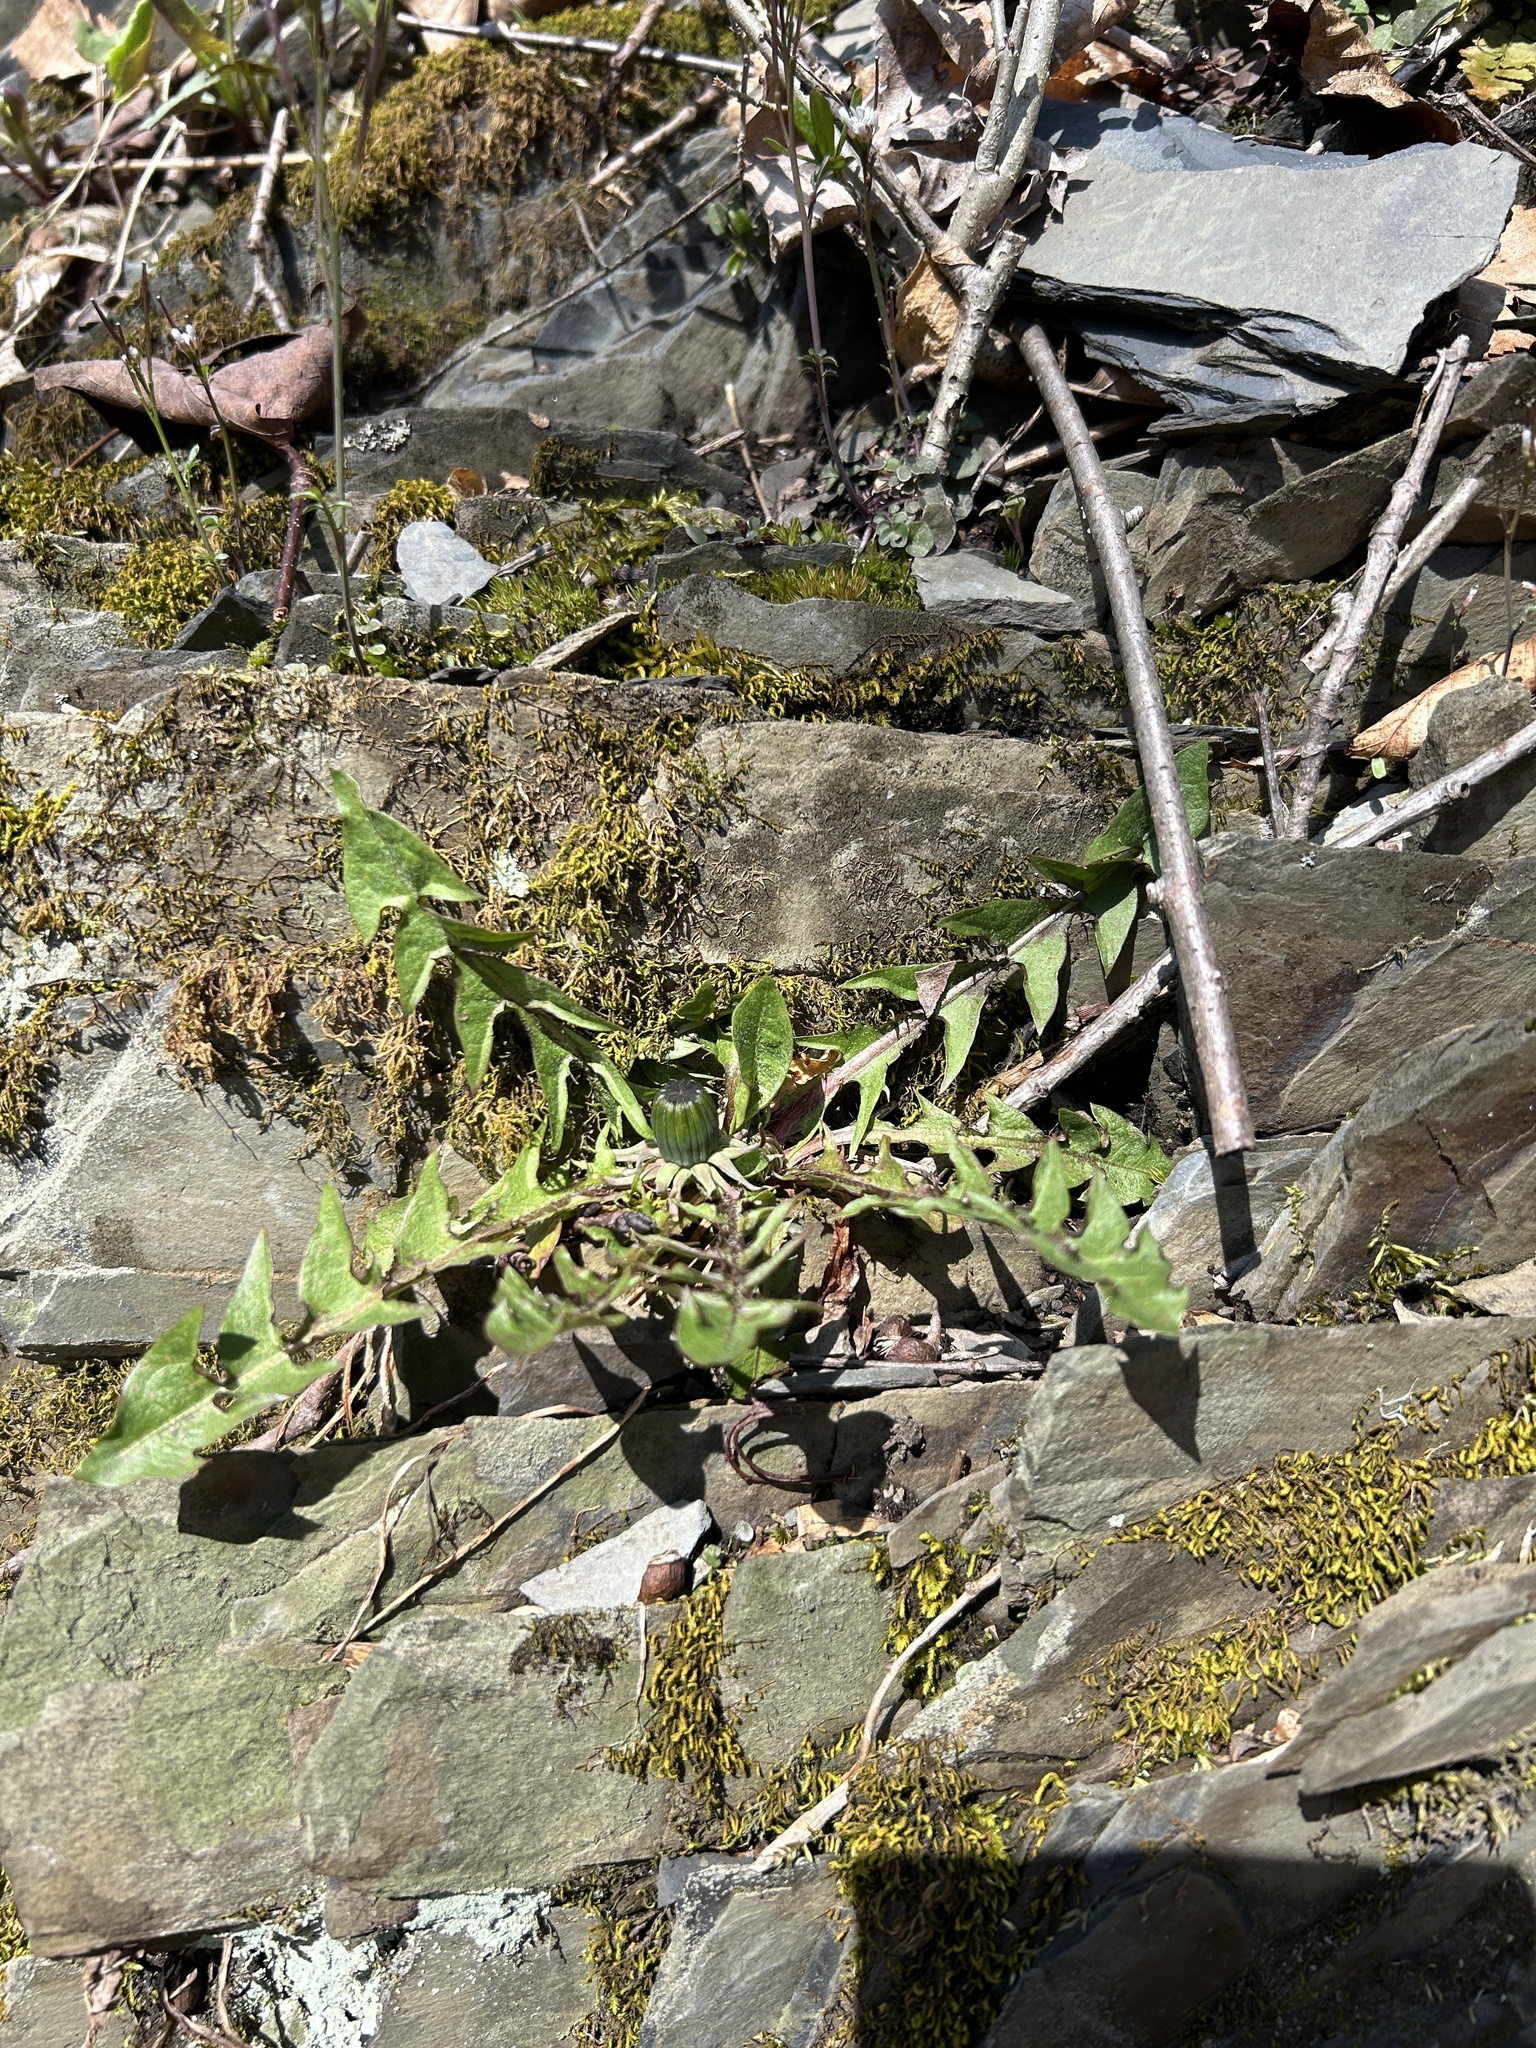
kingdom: Plantae
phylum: Tracheophyta
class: Magnoliopsida
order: Asterales
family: Asteraceae
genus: Taraxacum
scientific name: Taraxacum
